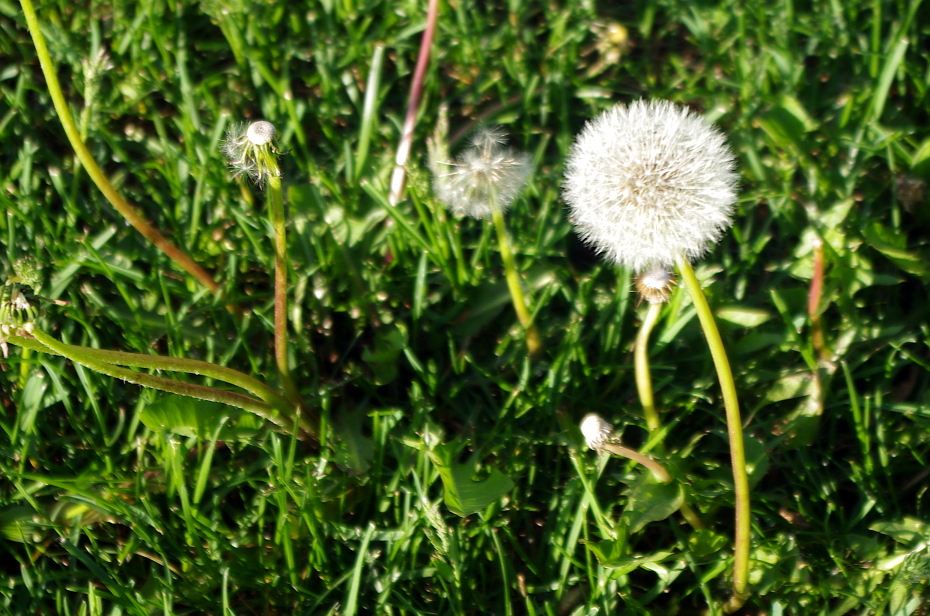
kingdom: Plantae
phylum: Tracheophyta
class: Magnoliopsida
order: Asterales
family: Asteraceae
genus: Taraxacum
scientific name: Taraxacum officinale
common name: Common dandelion
